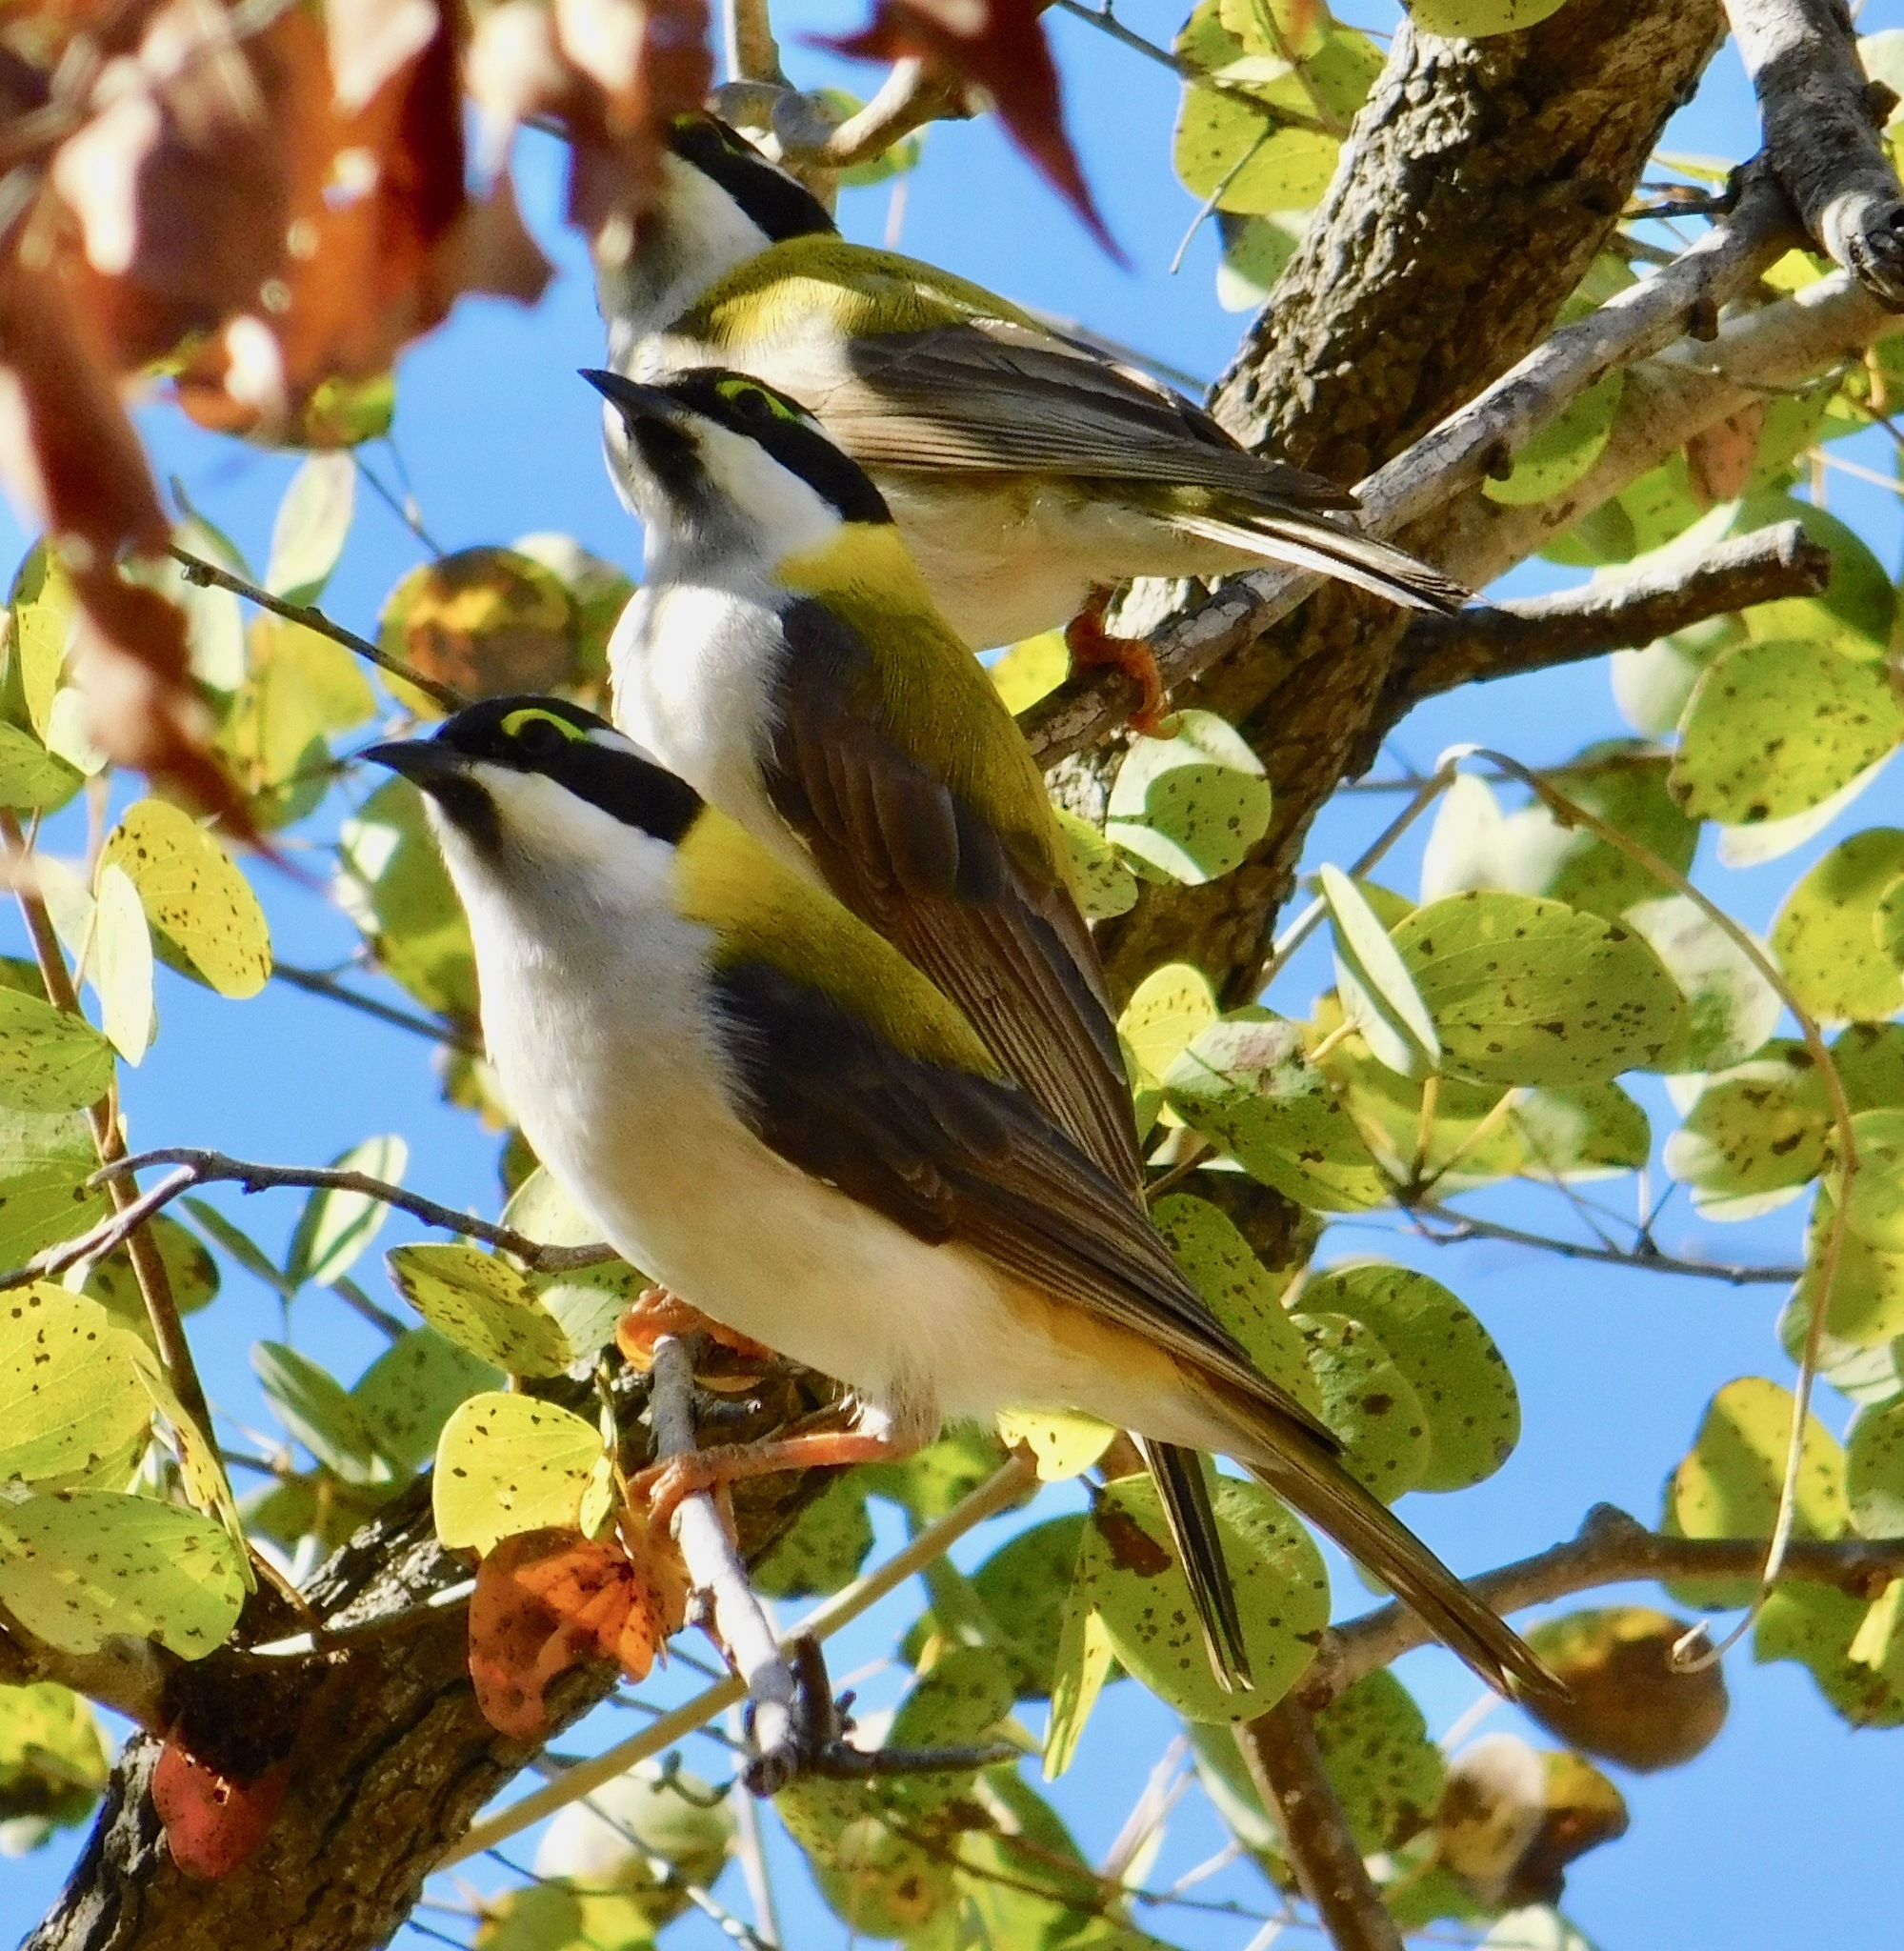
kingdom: Animalia
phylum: Chordata
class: Aves
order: Passeriformes
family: Meliphagidae
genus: Melithreptus
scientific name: Melithreptus gularis
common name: Black-chinned honeyeater
